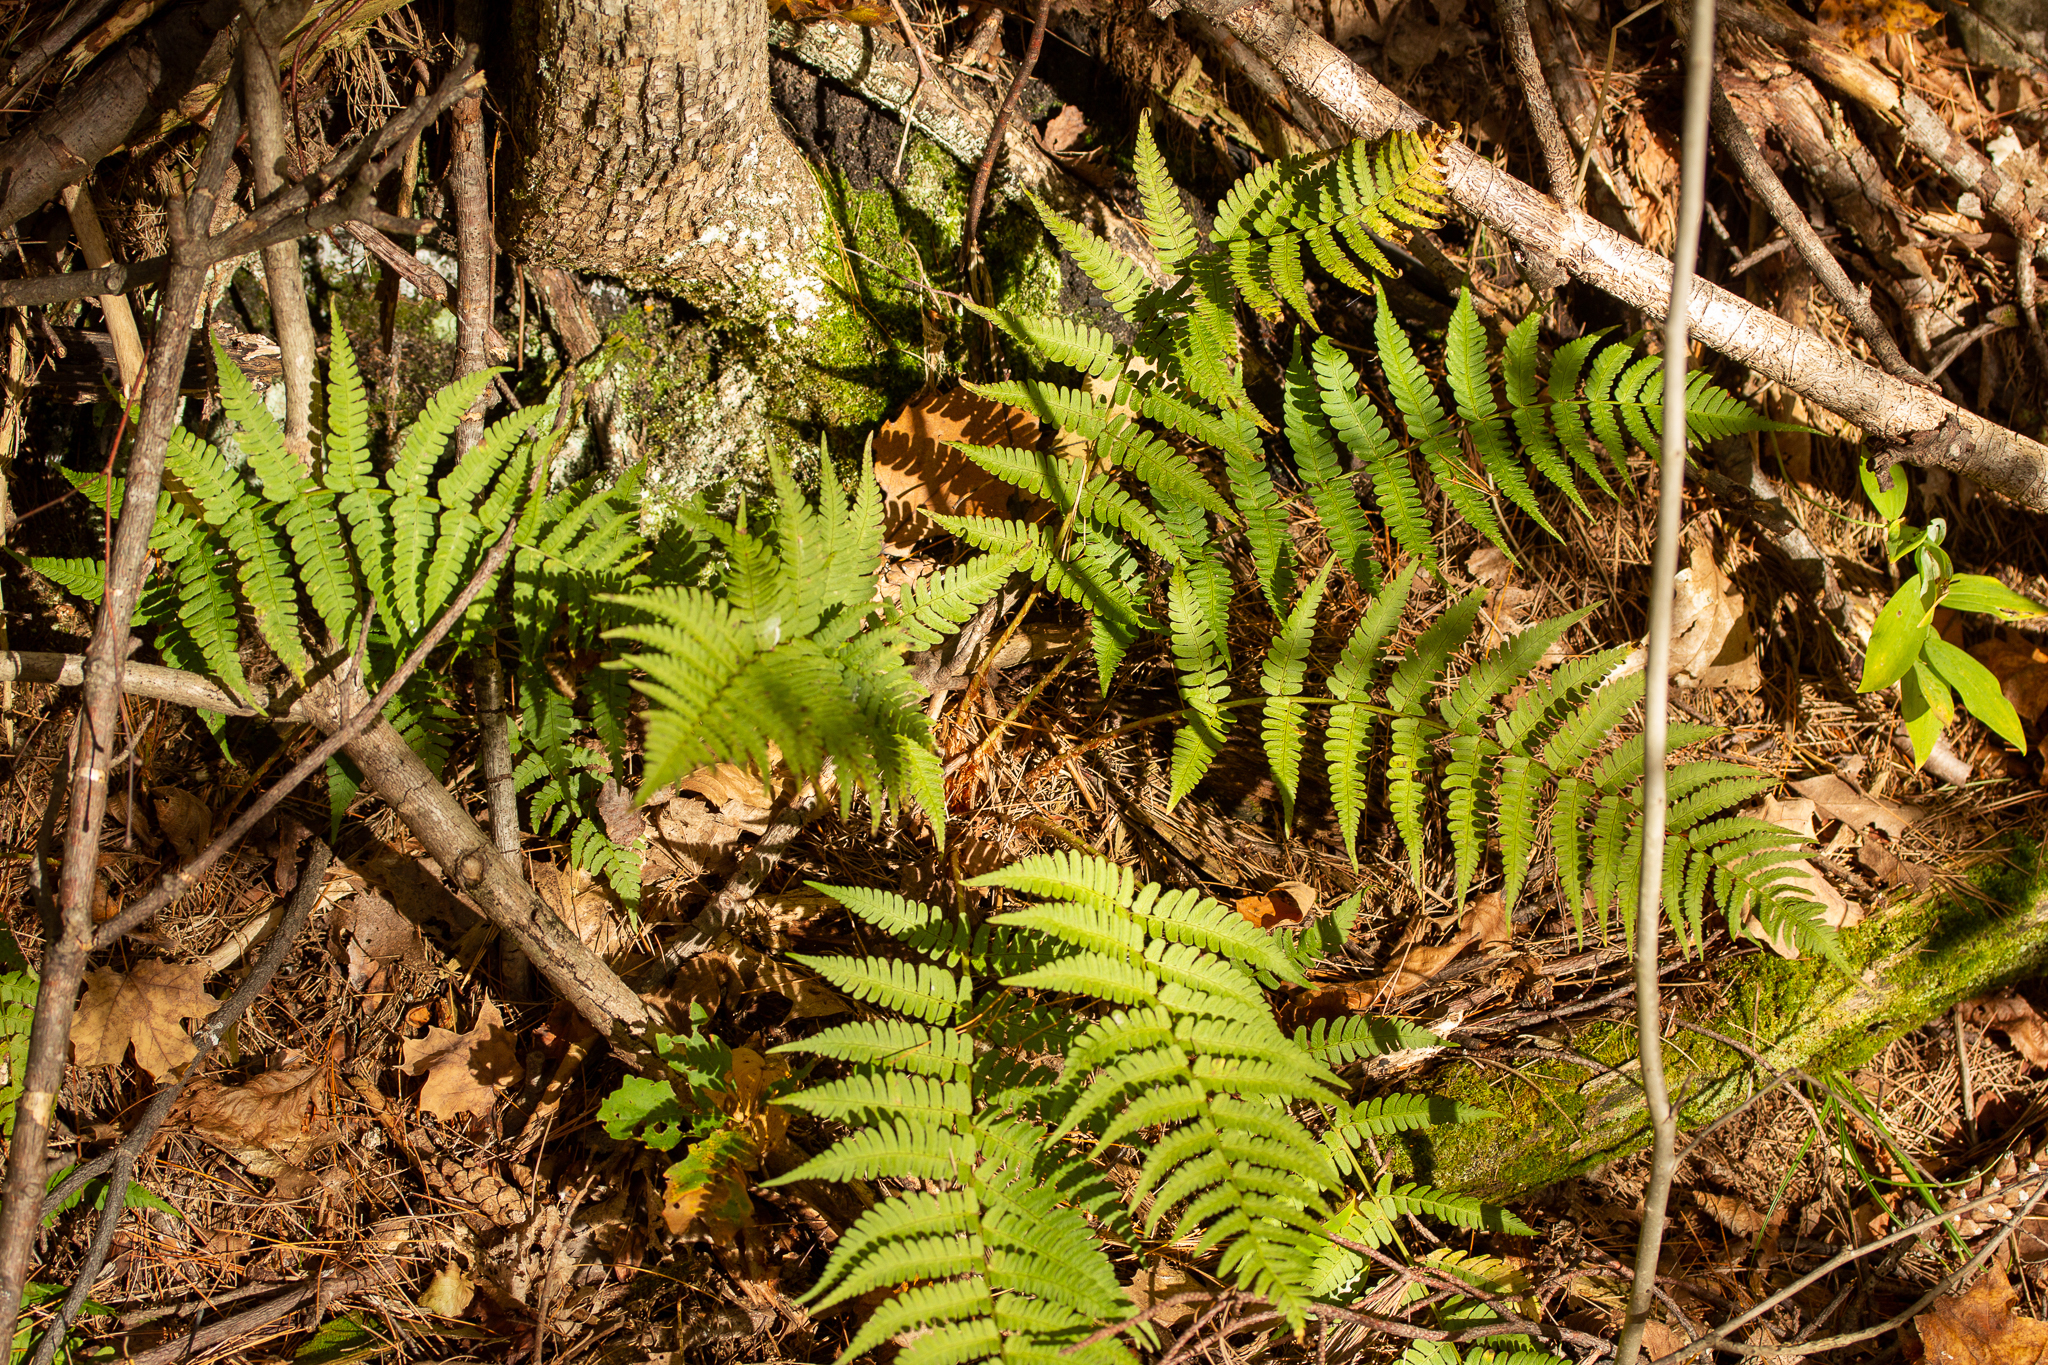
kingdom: Plantae
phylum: Tracheophyta
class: Polypodiopsida
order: Polypodiales
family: Dryopteridaceae
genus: Dryopteris
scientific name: Dryopteris marginalis
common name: Marginal wood fern
